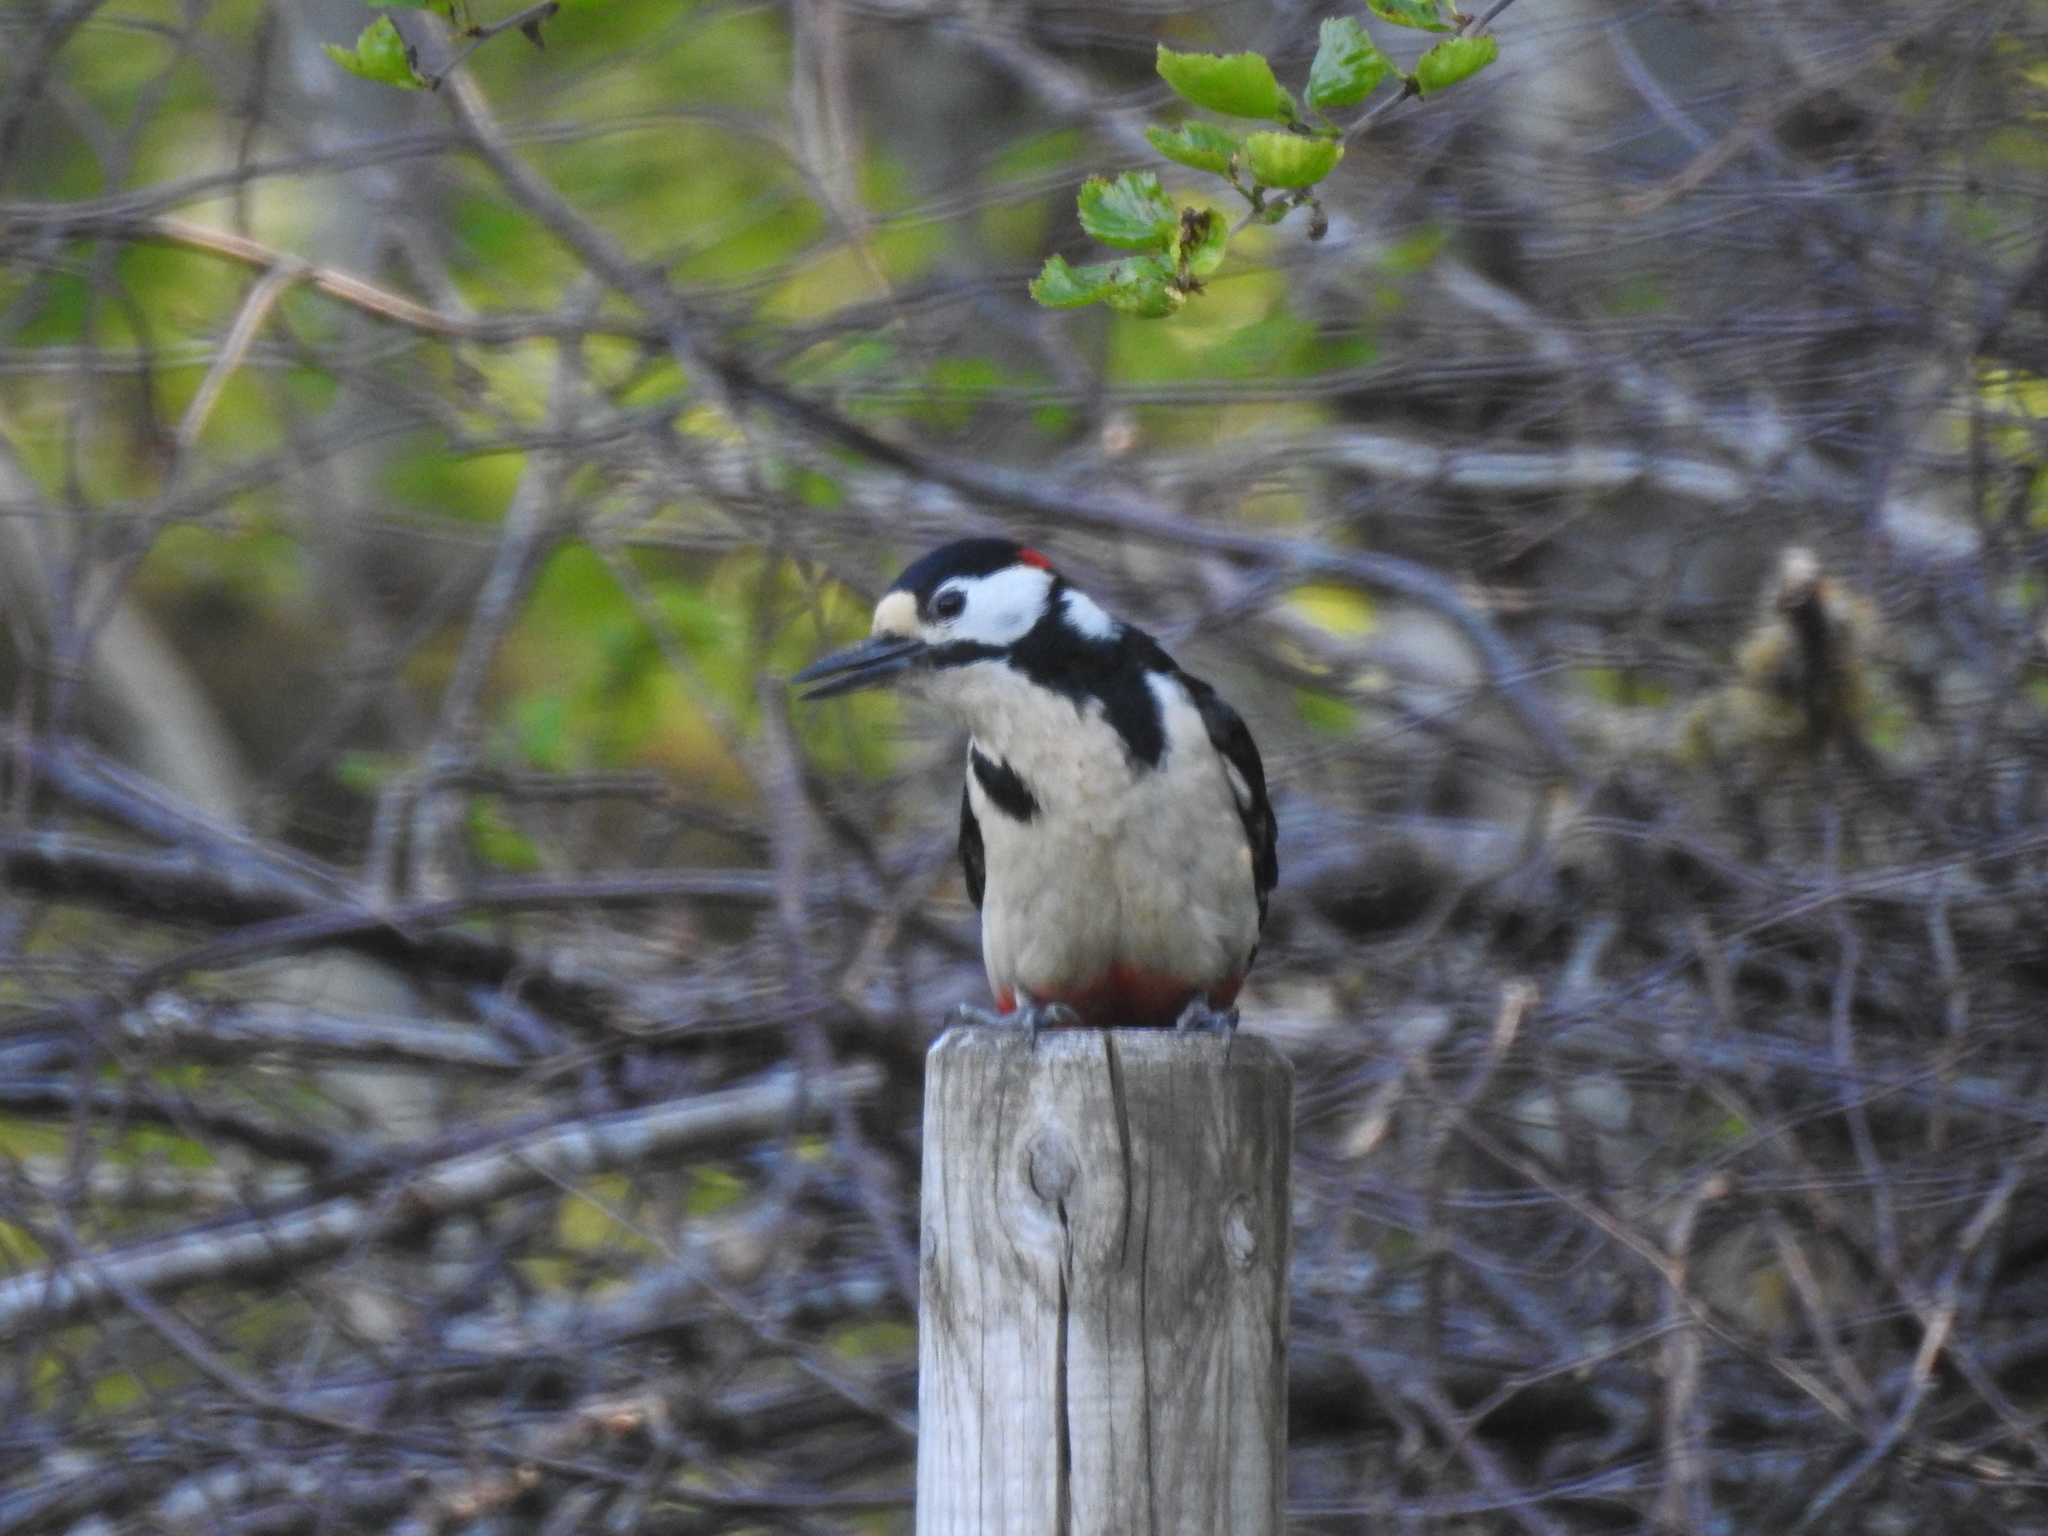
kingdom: Animalia
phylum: Chordata
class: Aves
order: Piciformes
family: Picidae
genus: Dendrocopos
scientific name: Dendrocopos major
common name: Great spotted woodpecker
